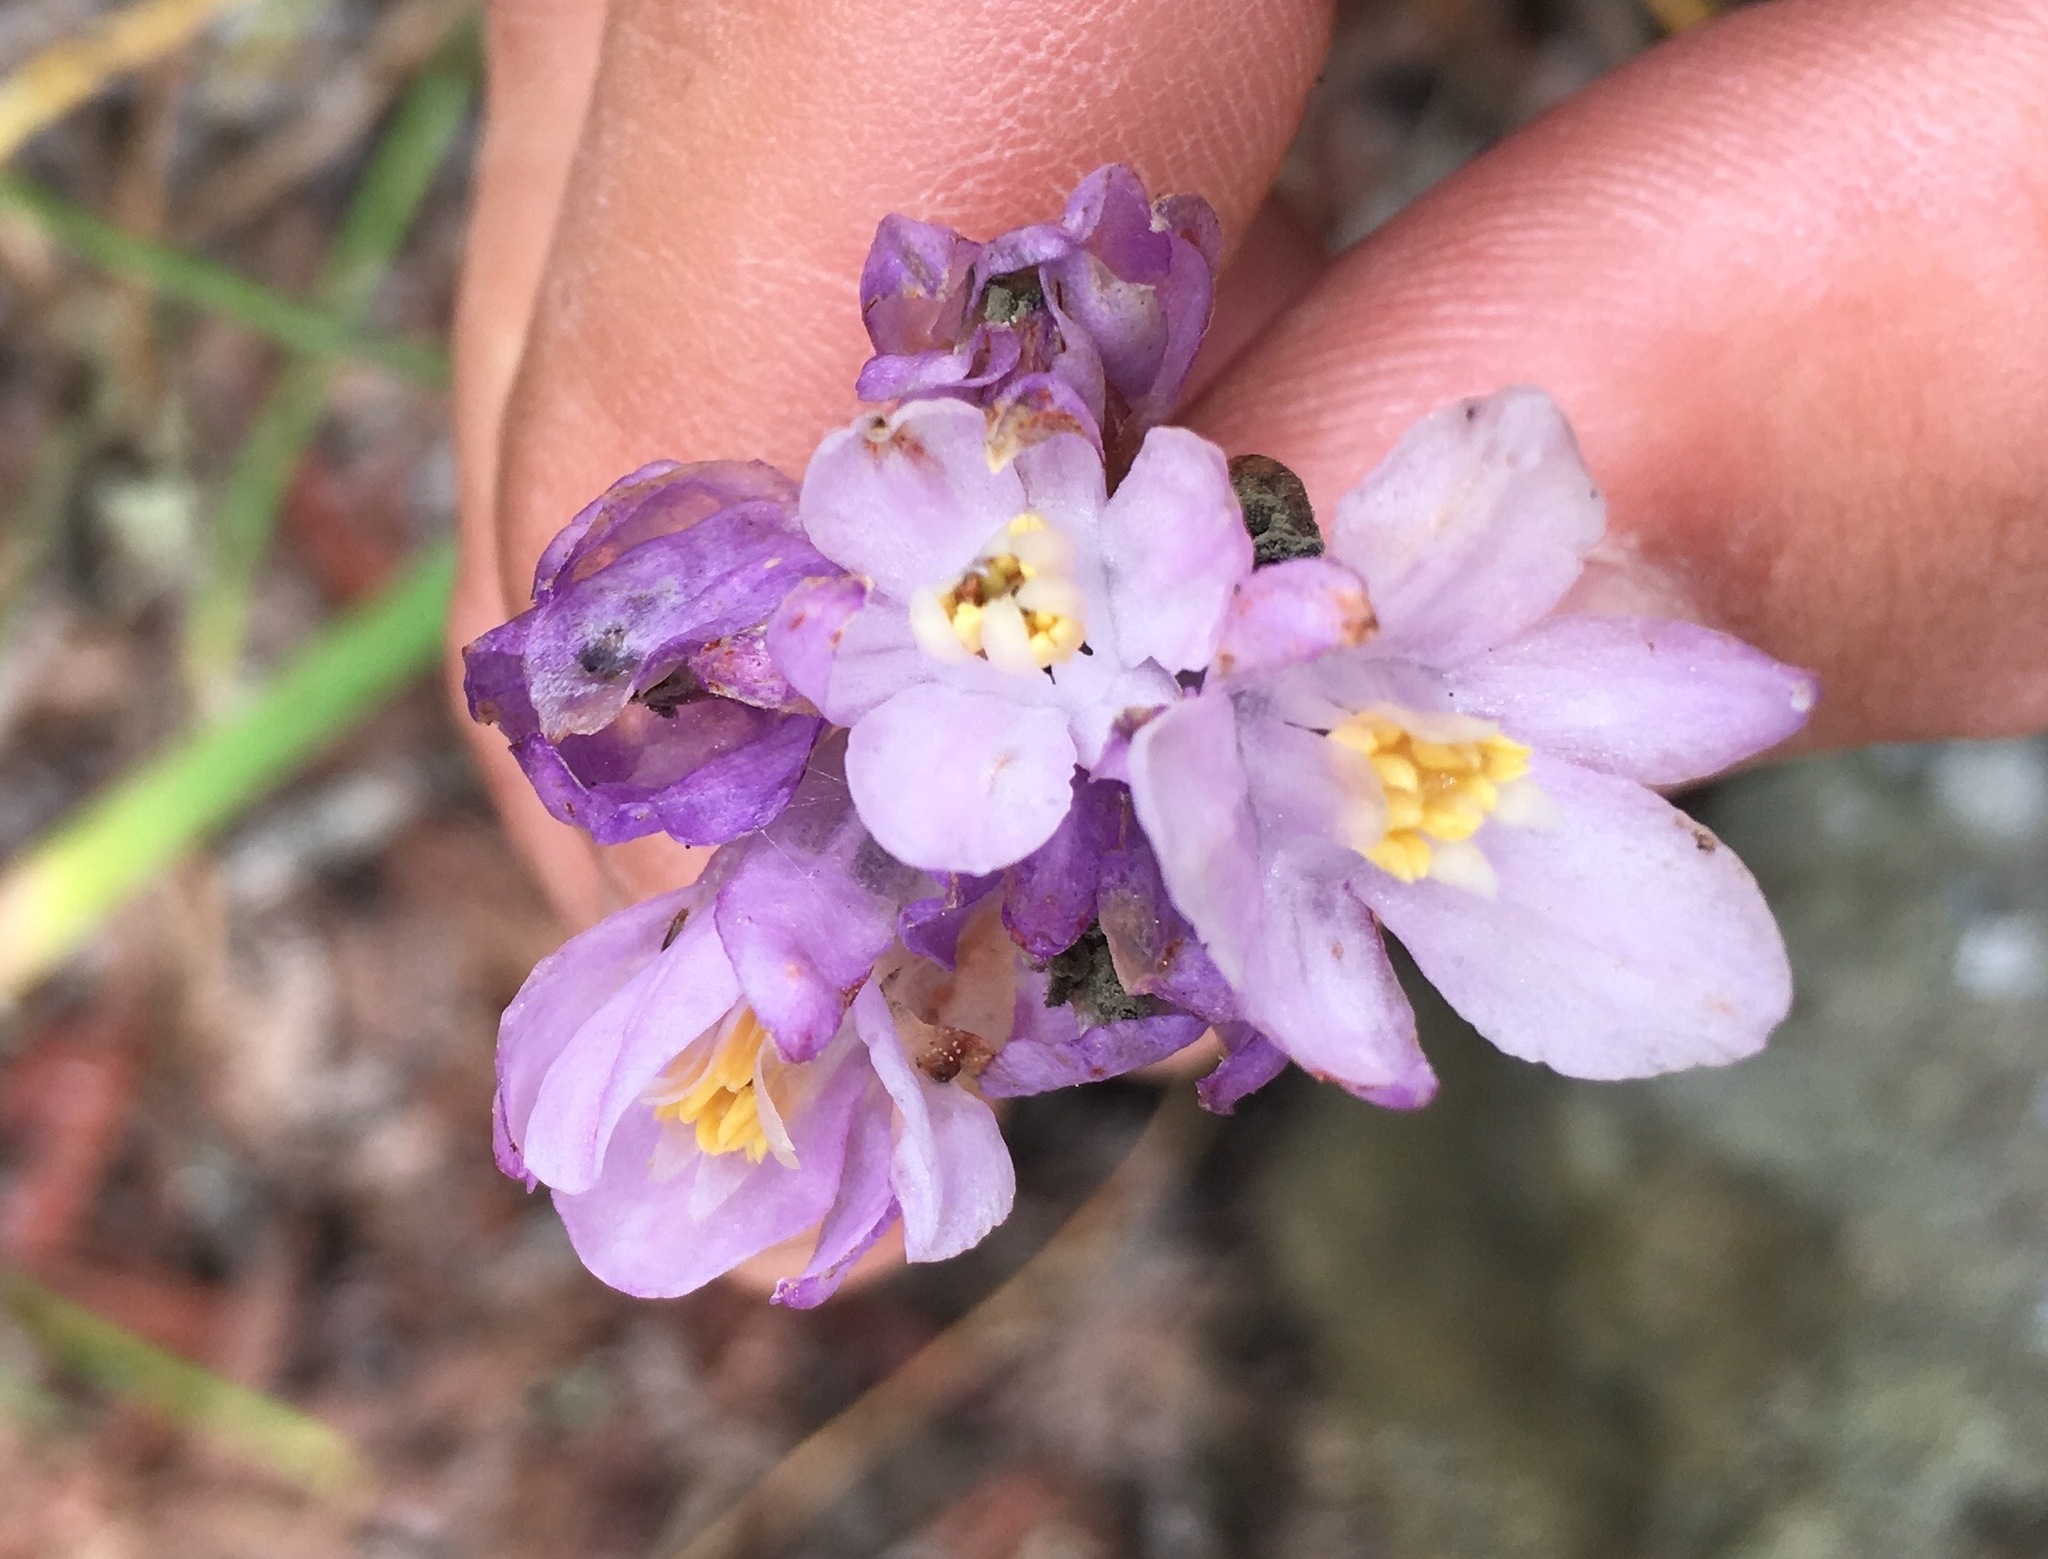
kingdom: Plantae
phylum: Tracheophyta
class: Liliopsida
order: Asparagales
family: Asparagaceae
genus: Dipterostemon
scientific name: Dipterostemon capitatus
